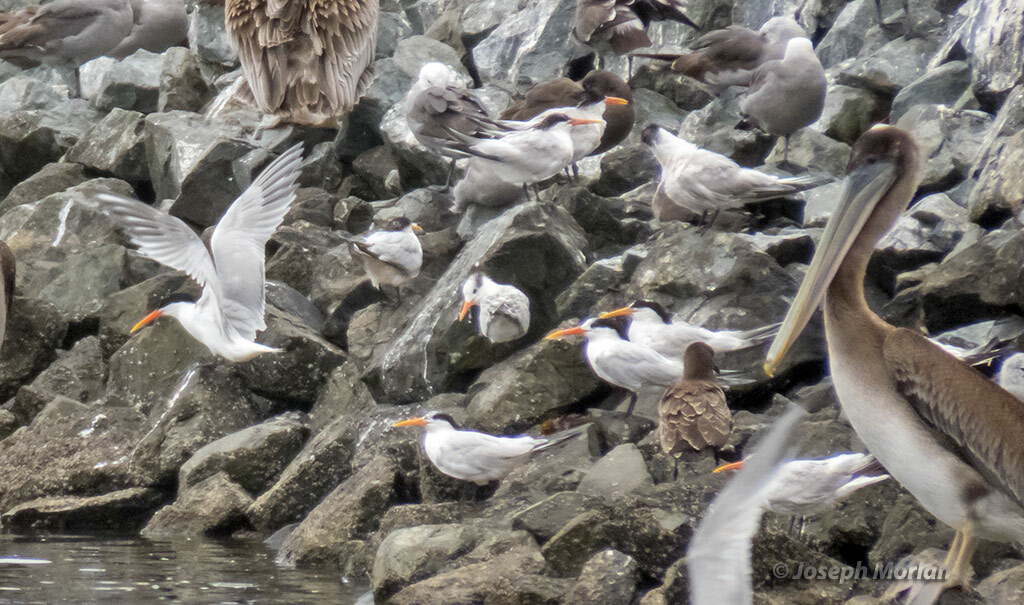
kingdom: Animalia
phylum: Chordata
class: Aves
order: Charadriiformes
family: Laridae
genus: Thalasseus
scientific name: Thalasseus elegans
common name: Elegant tern
